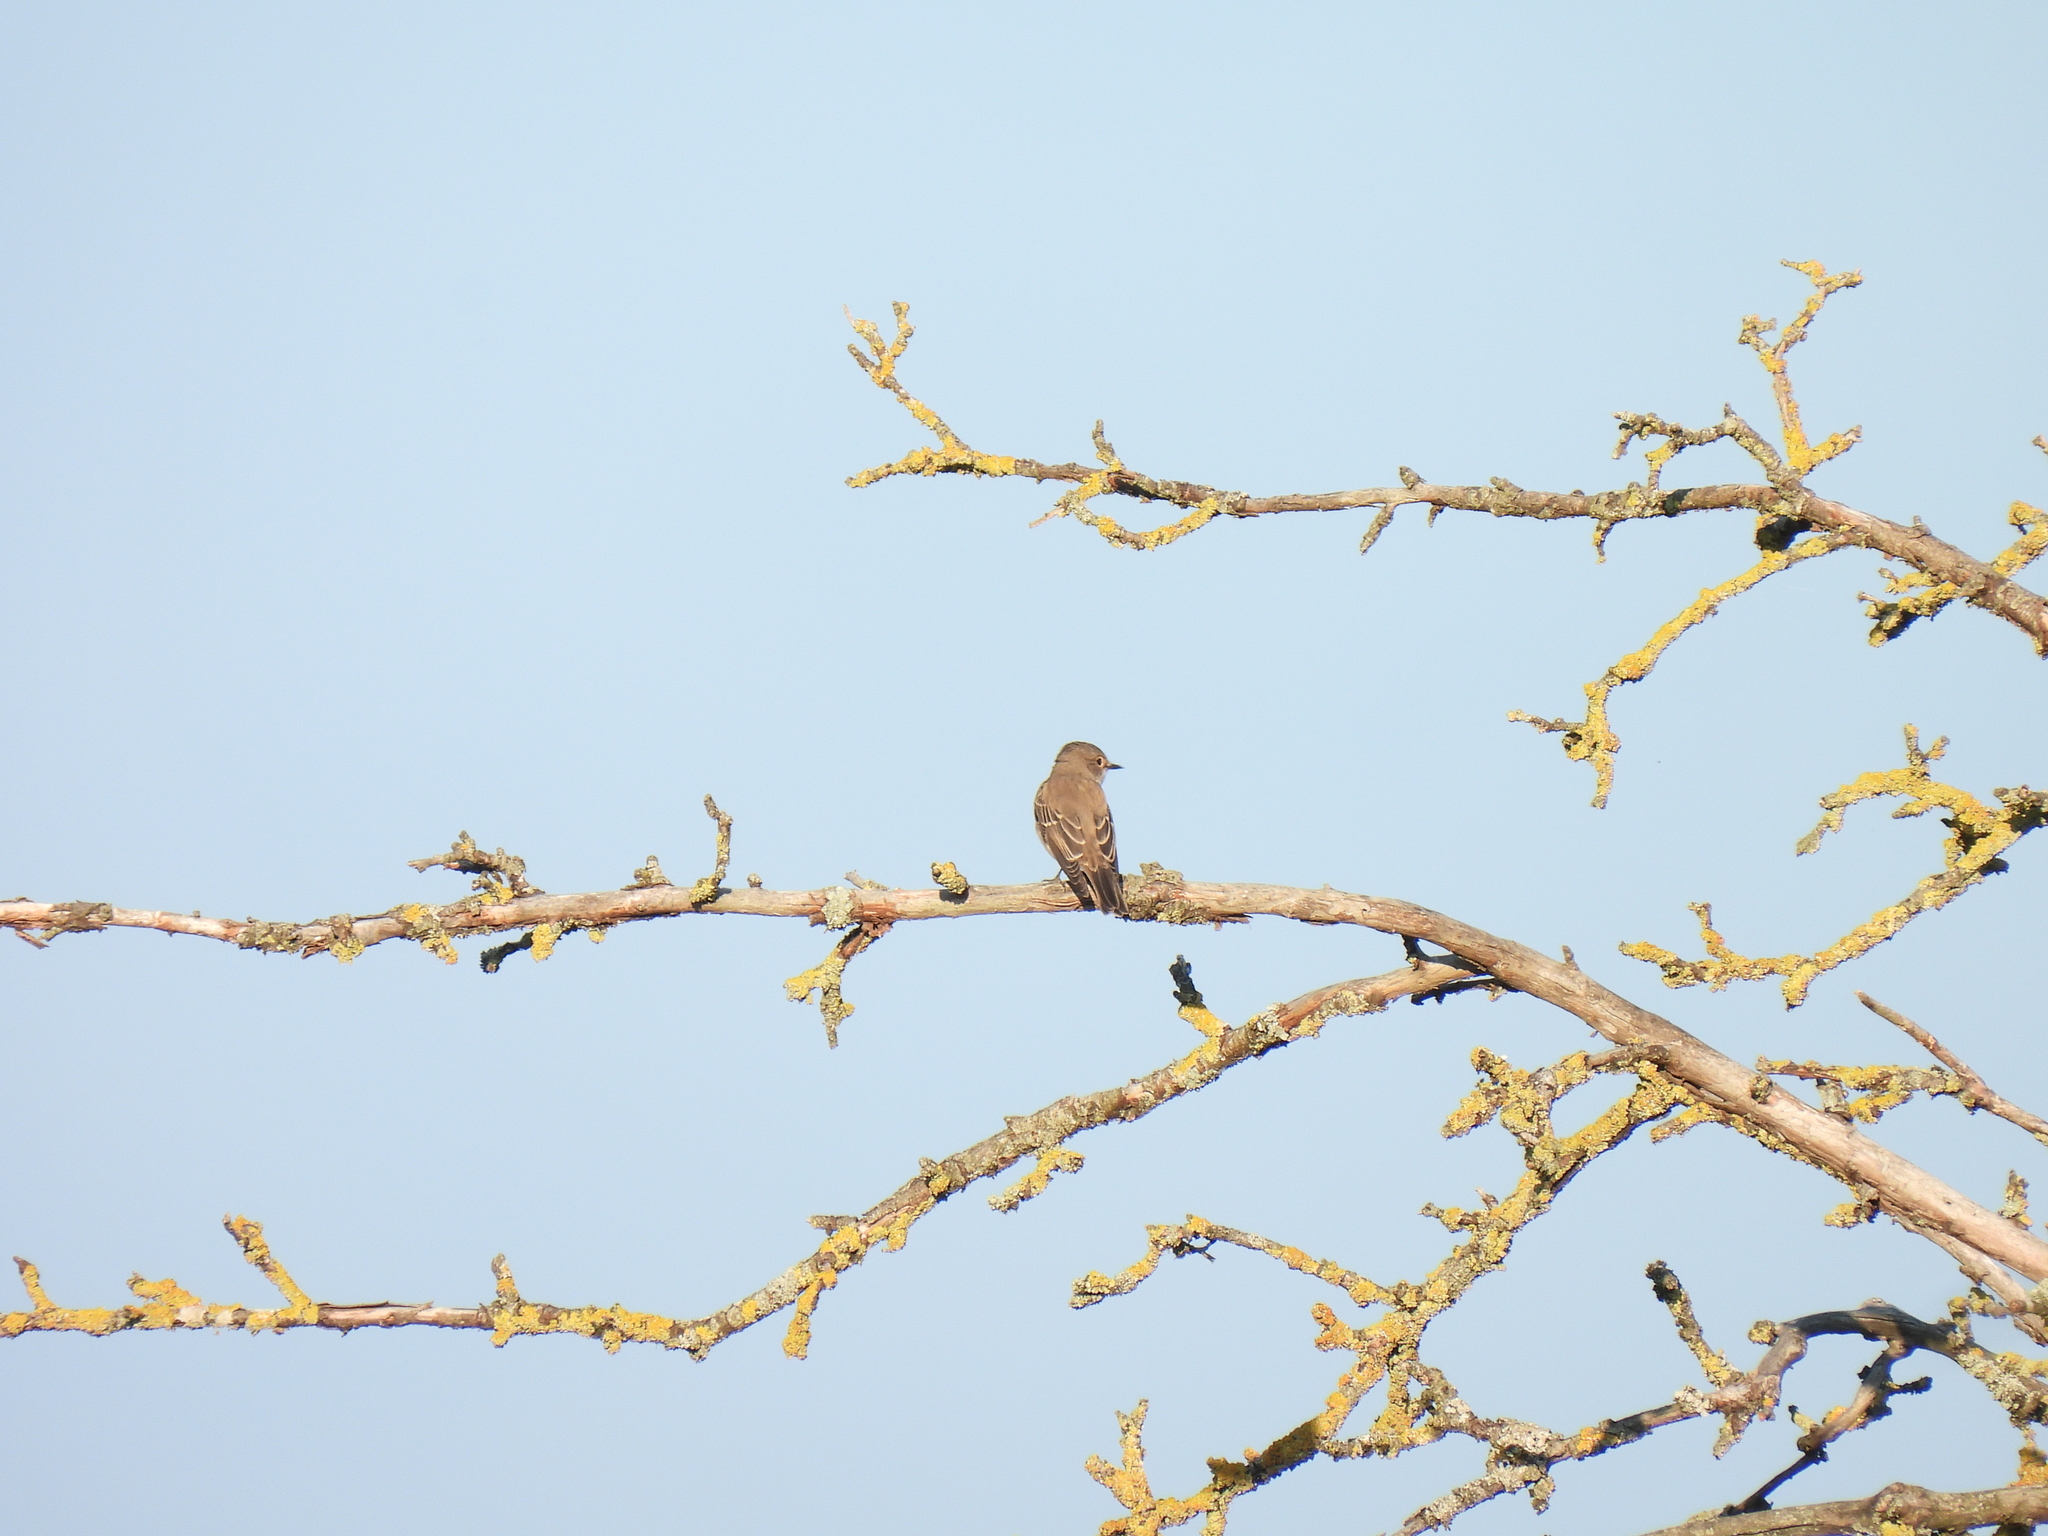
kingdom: Animalia
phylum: Chordata
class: Aves
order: Passeriformes
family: Muscicapidae
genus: Muscicapa
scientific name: Muscicapa striata
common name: Spotted flycatcher
